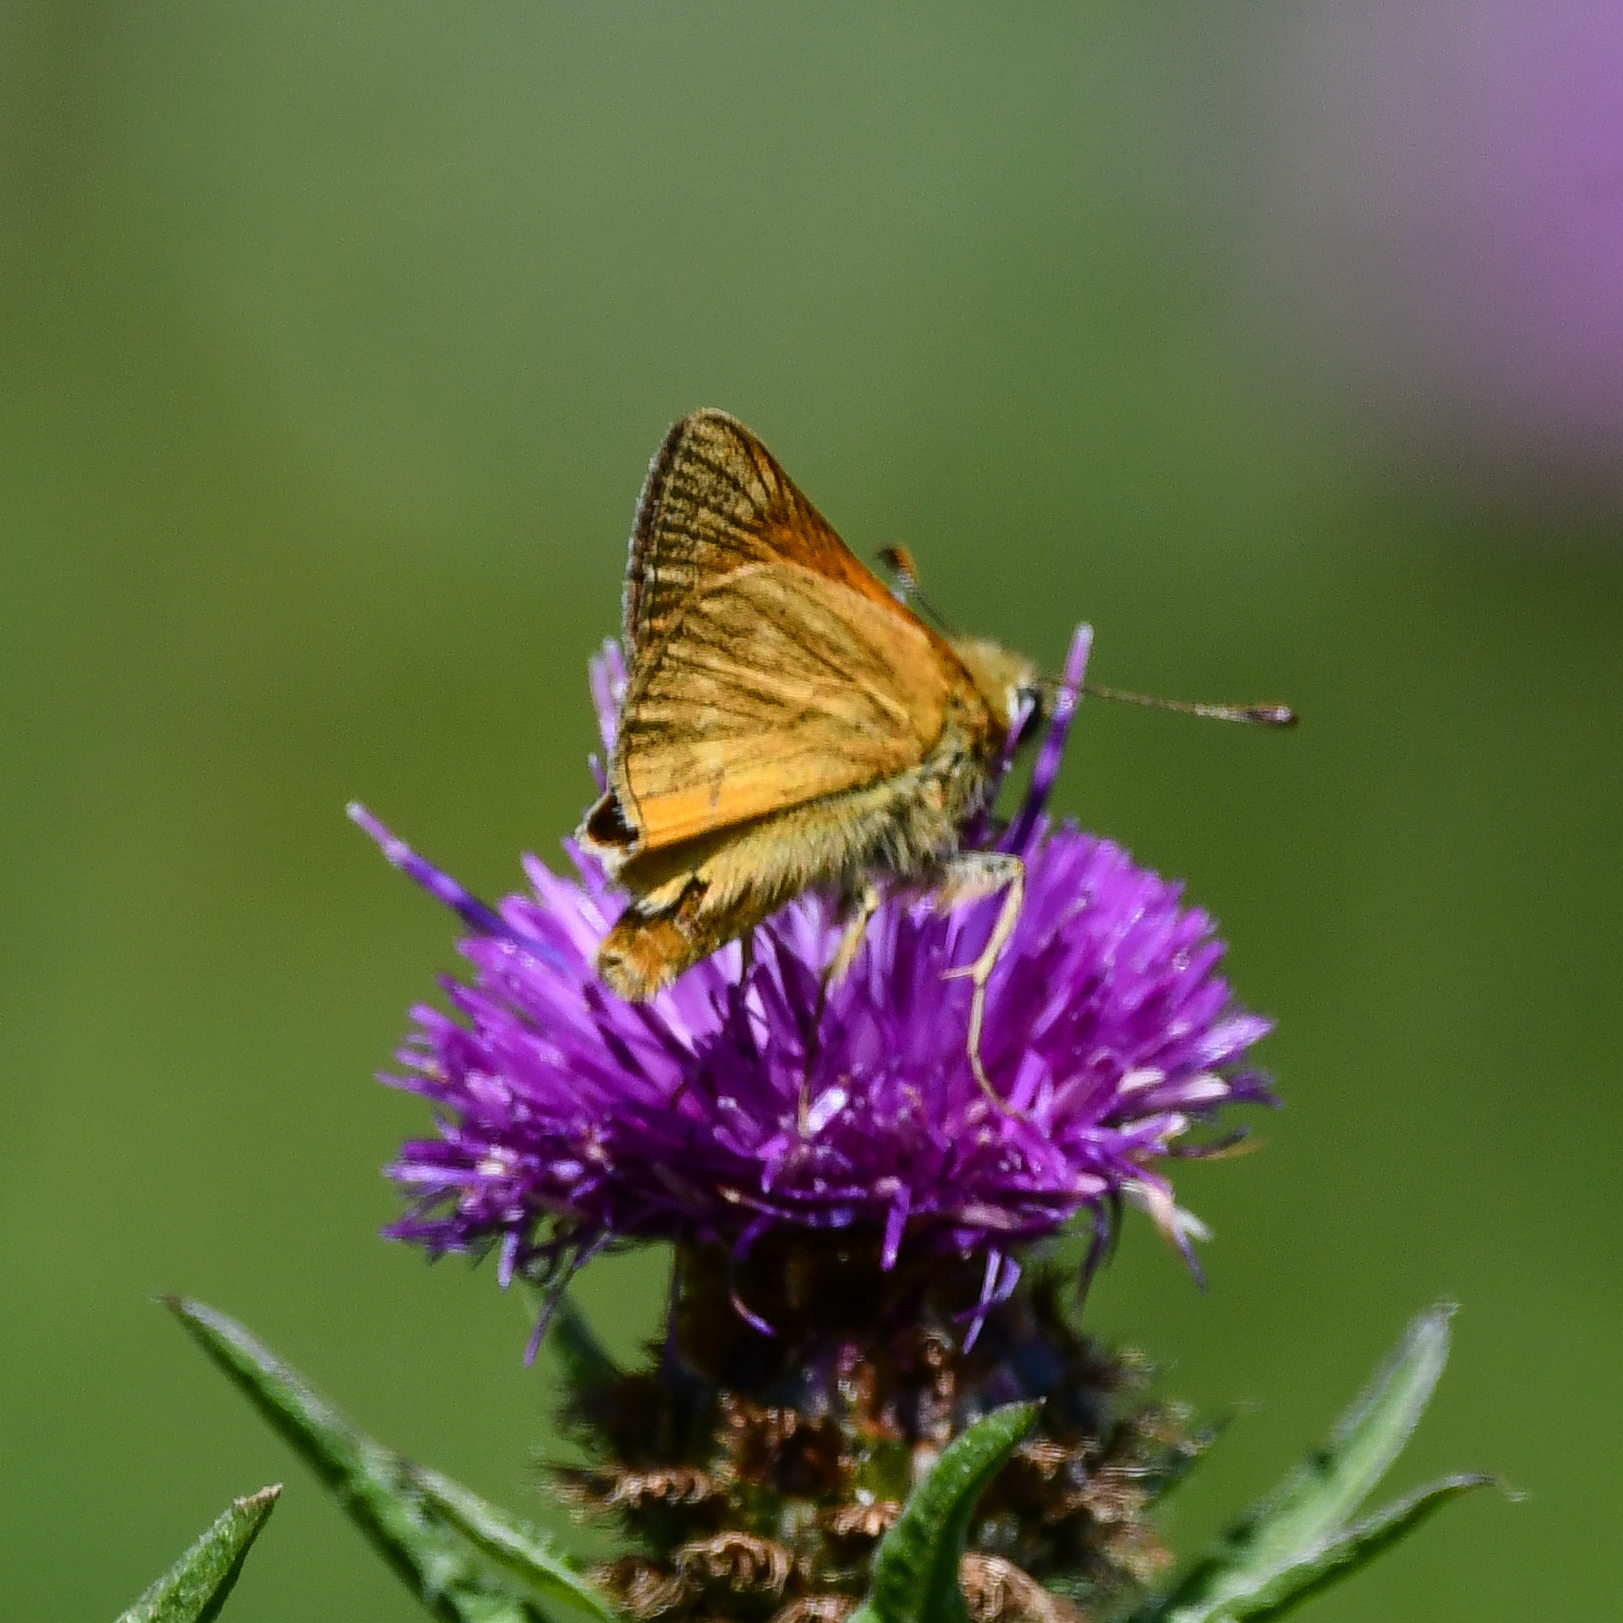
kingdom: Animalia
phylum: Arthropoda
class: Insecta
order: Lepidoptera
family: Hesperiidae
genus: Ochlodes
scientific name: Ochlodes venata
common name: Large skipper
